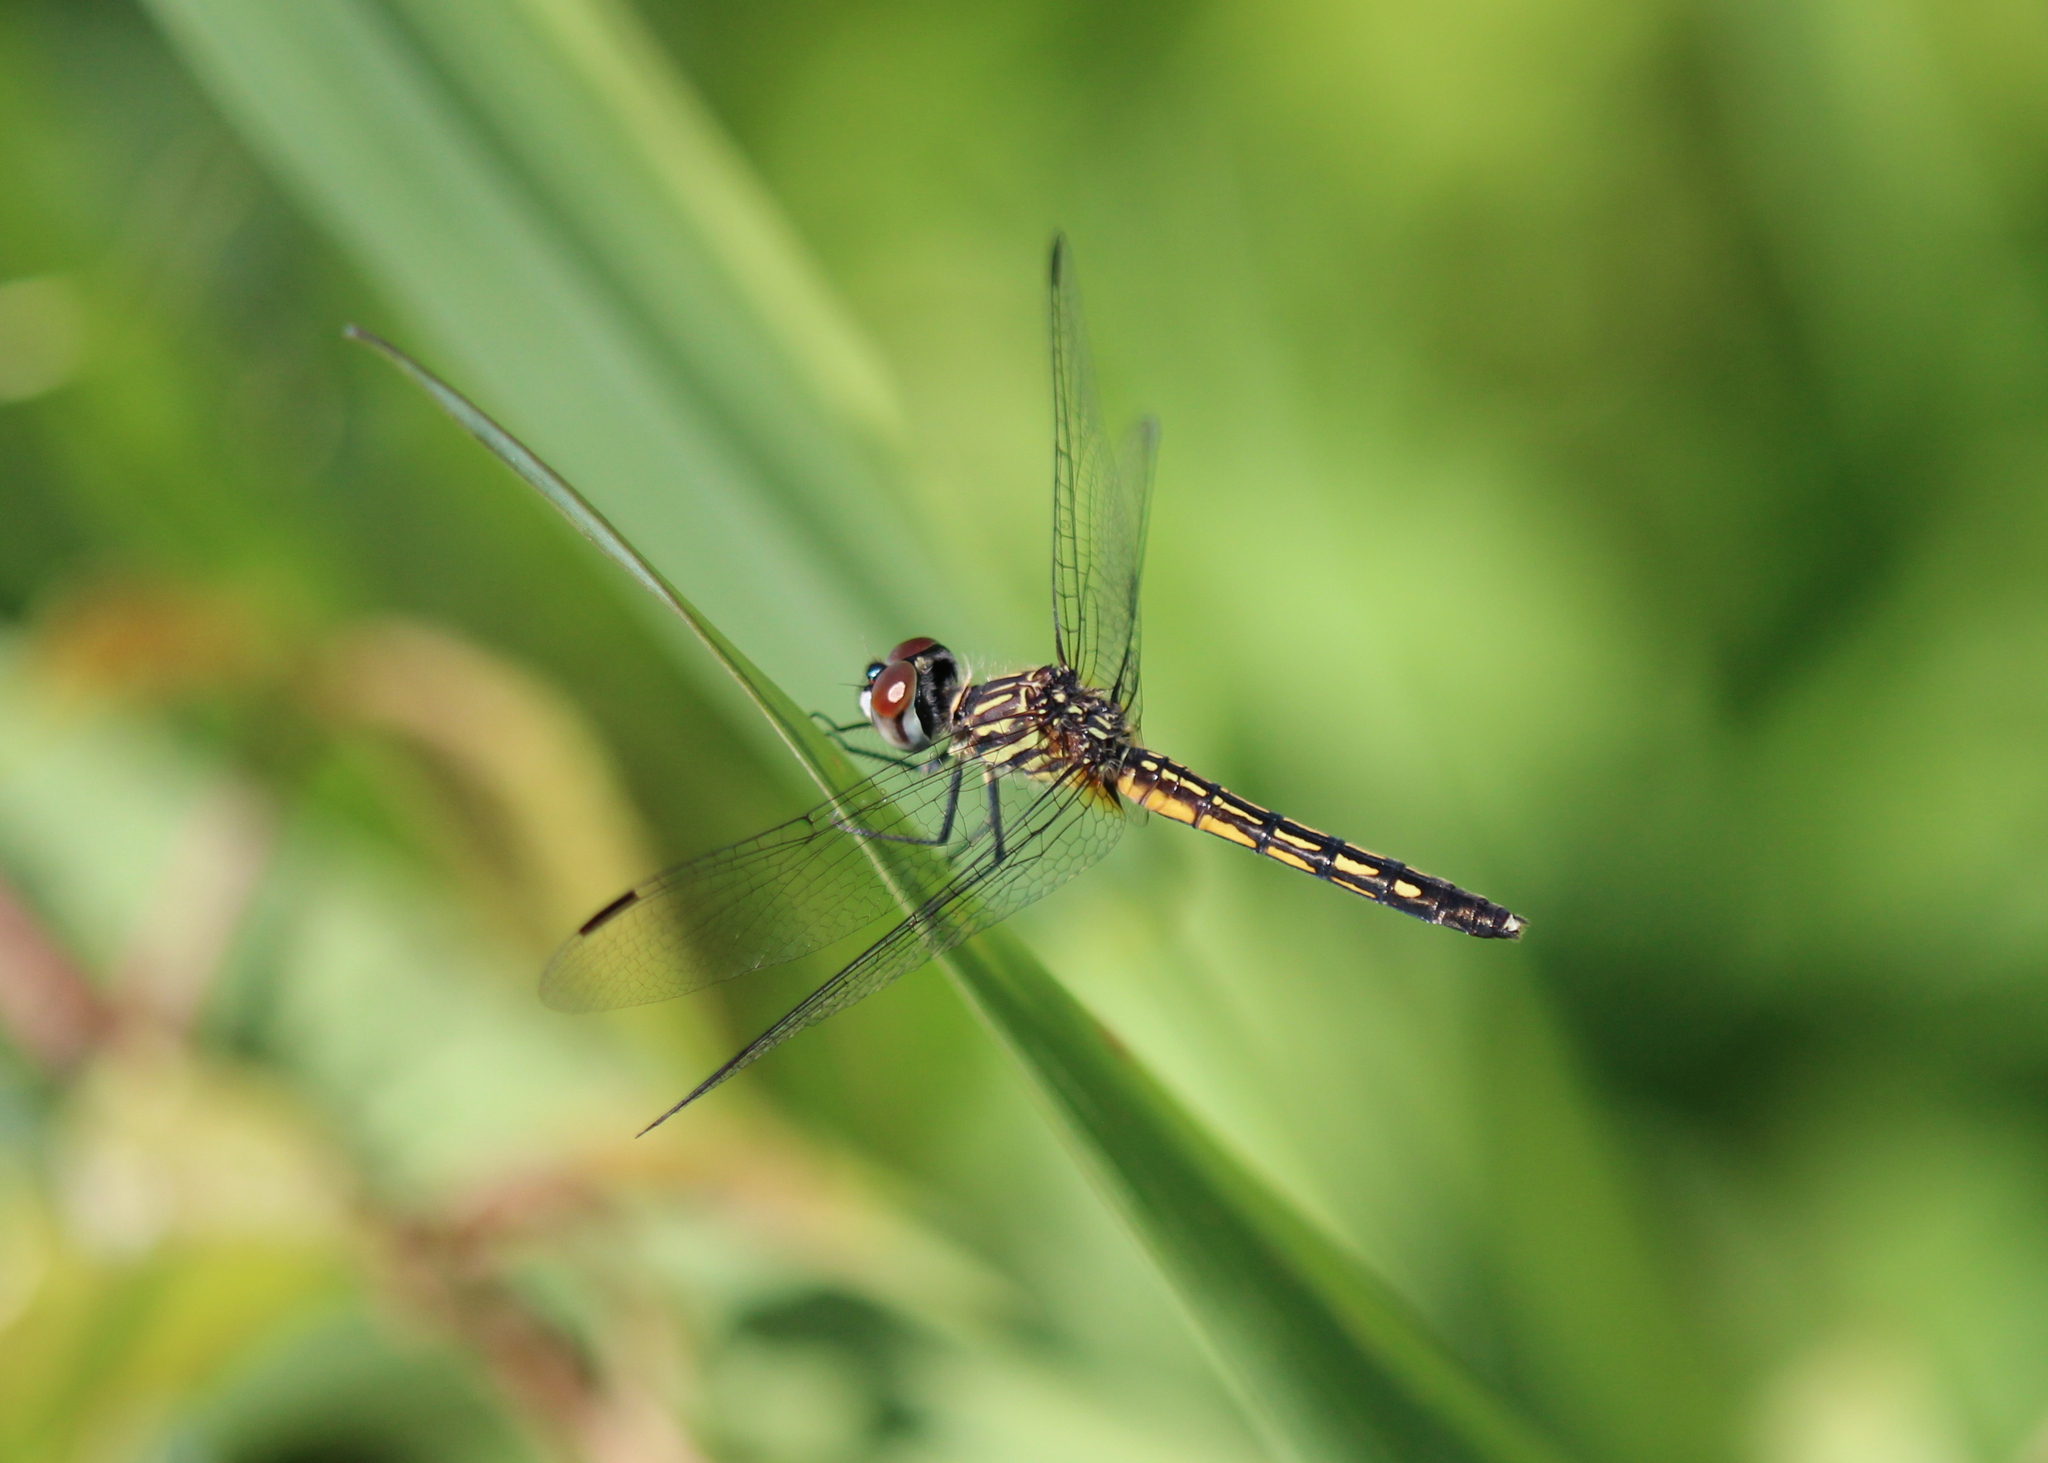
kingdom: Animalia
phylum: Arthropoda
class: Insecta
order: Odonata
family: Libellulidae
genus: Pachydiplax
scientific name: Pachydiplax longipennis
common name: Blue dasher
